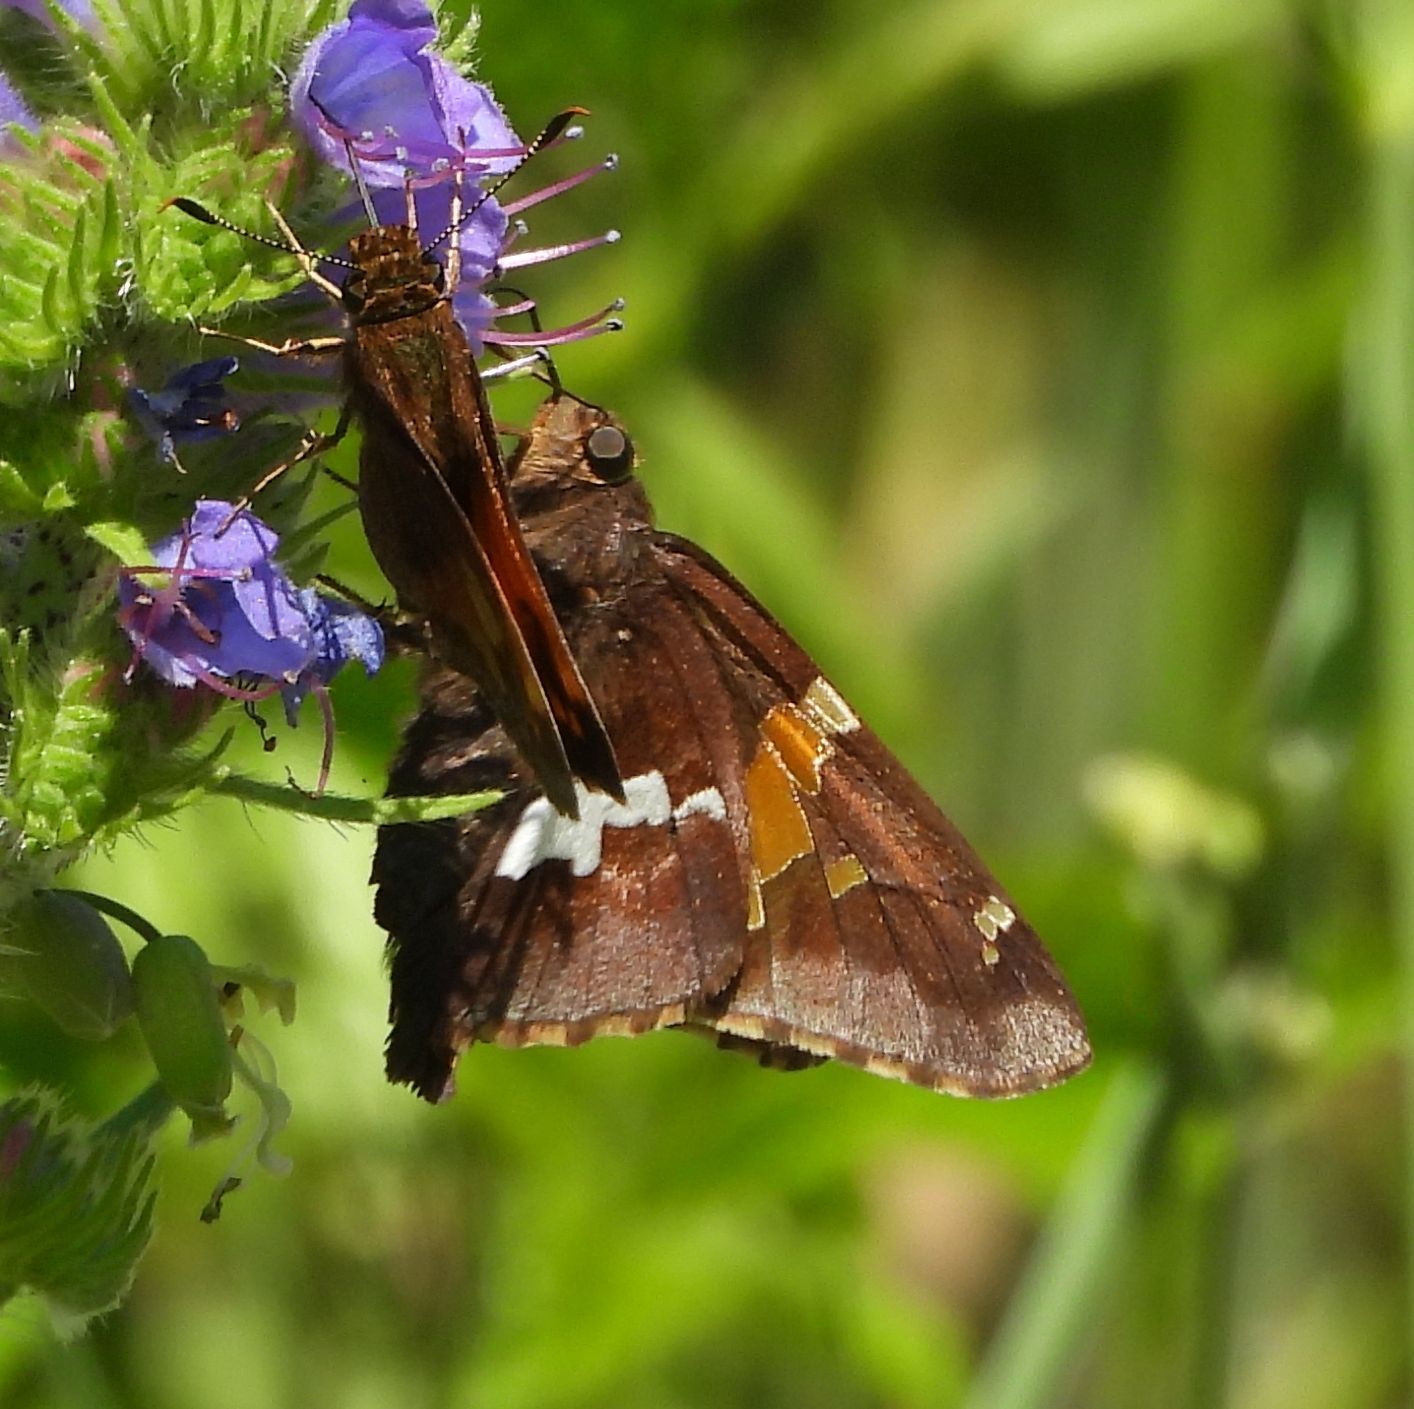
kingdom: Animalia
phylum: Arthropoda
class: Insecta
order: Lepidoptera
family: Hesperiidae
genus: Epargyreus
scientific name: Epargyreus clarus
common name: Silver-spotted skipper
